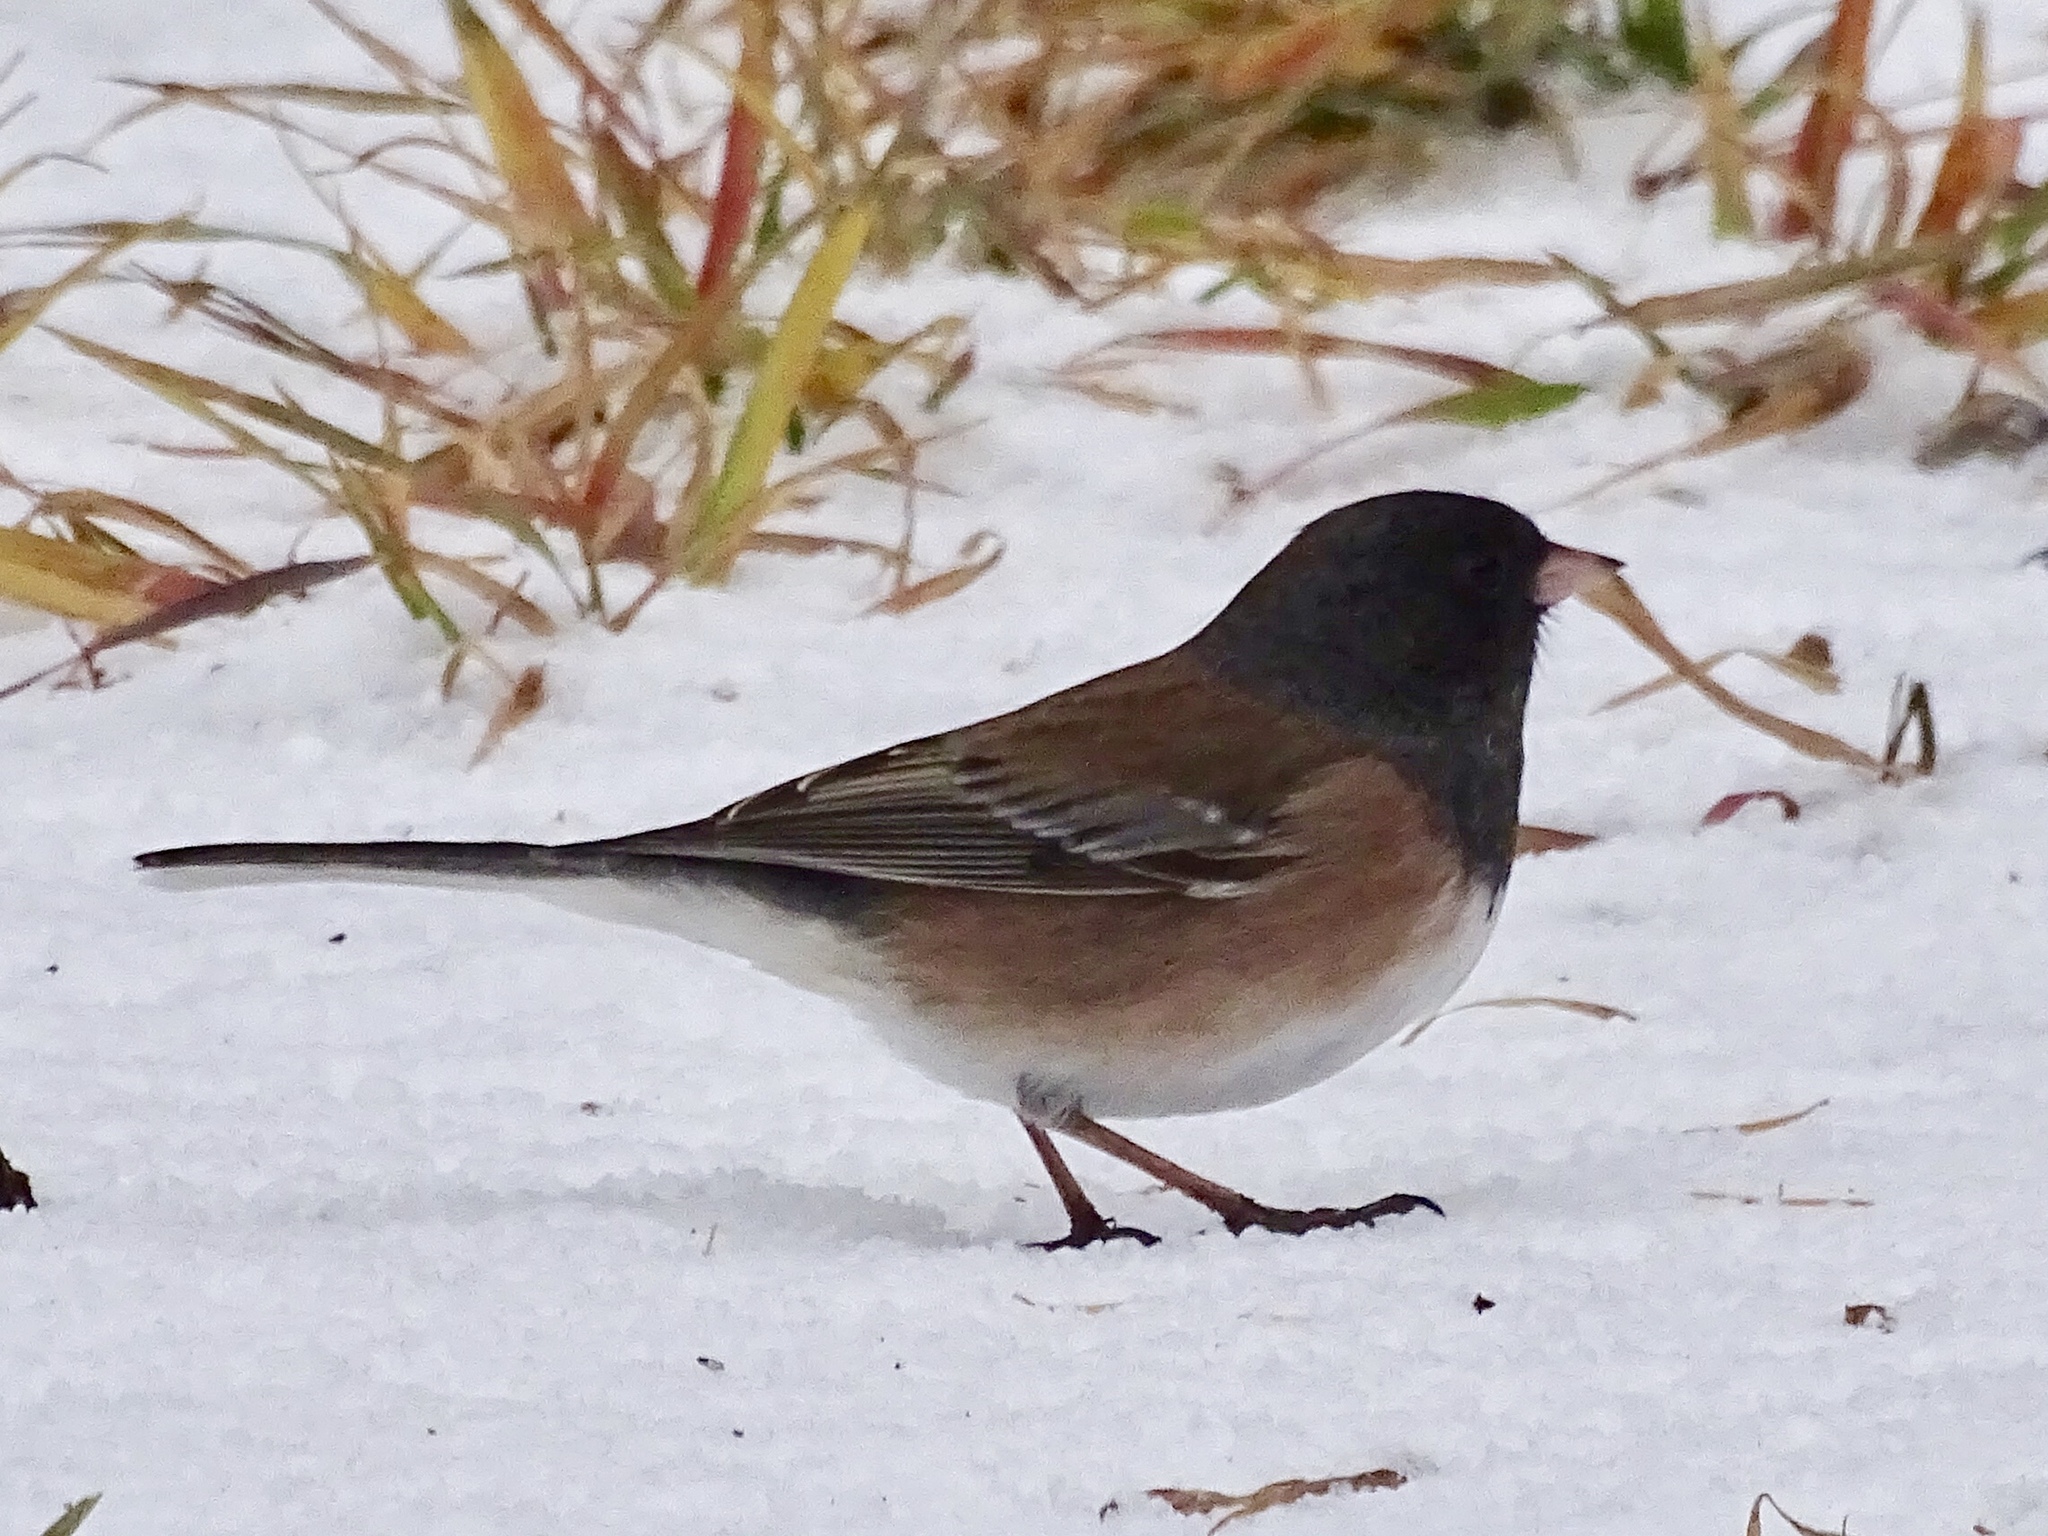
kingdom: Animalia
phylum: Chordata
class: Aves
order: Passeriformes
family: Passerellidae
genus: Junco
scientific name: Junco hyemalis
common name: Dark-eyed junco
